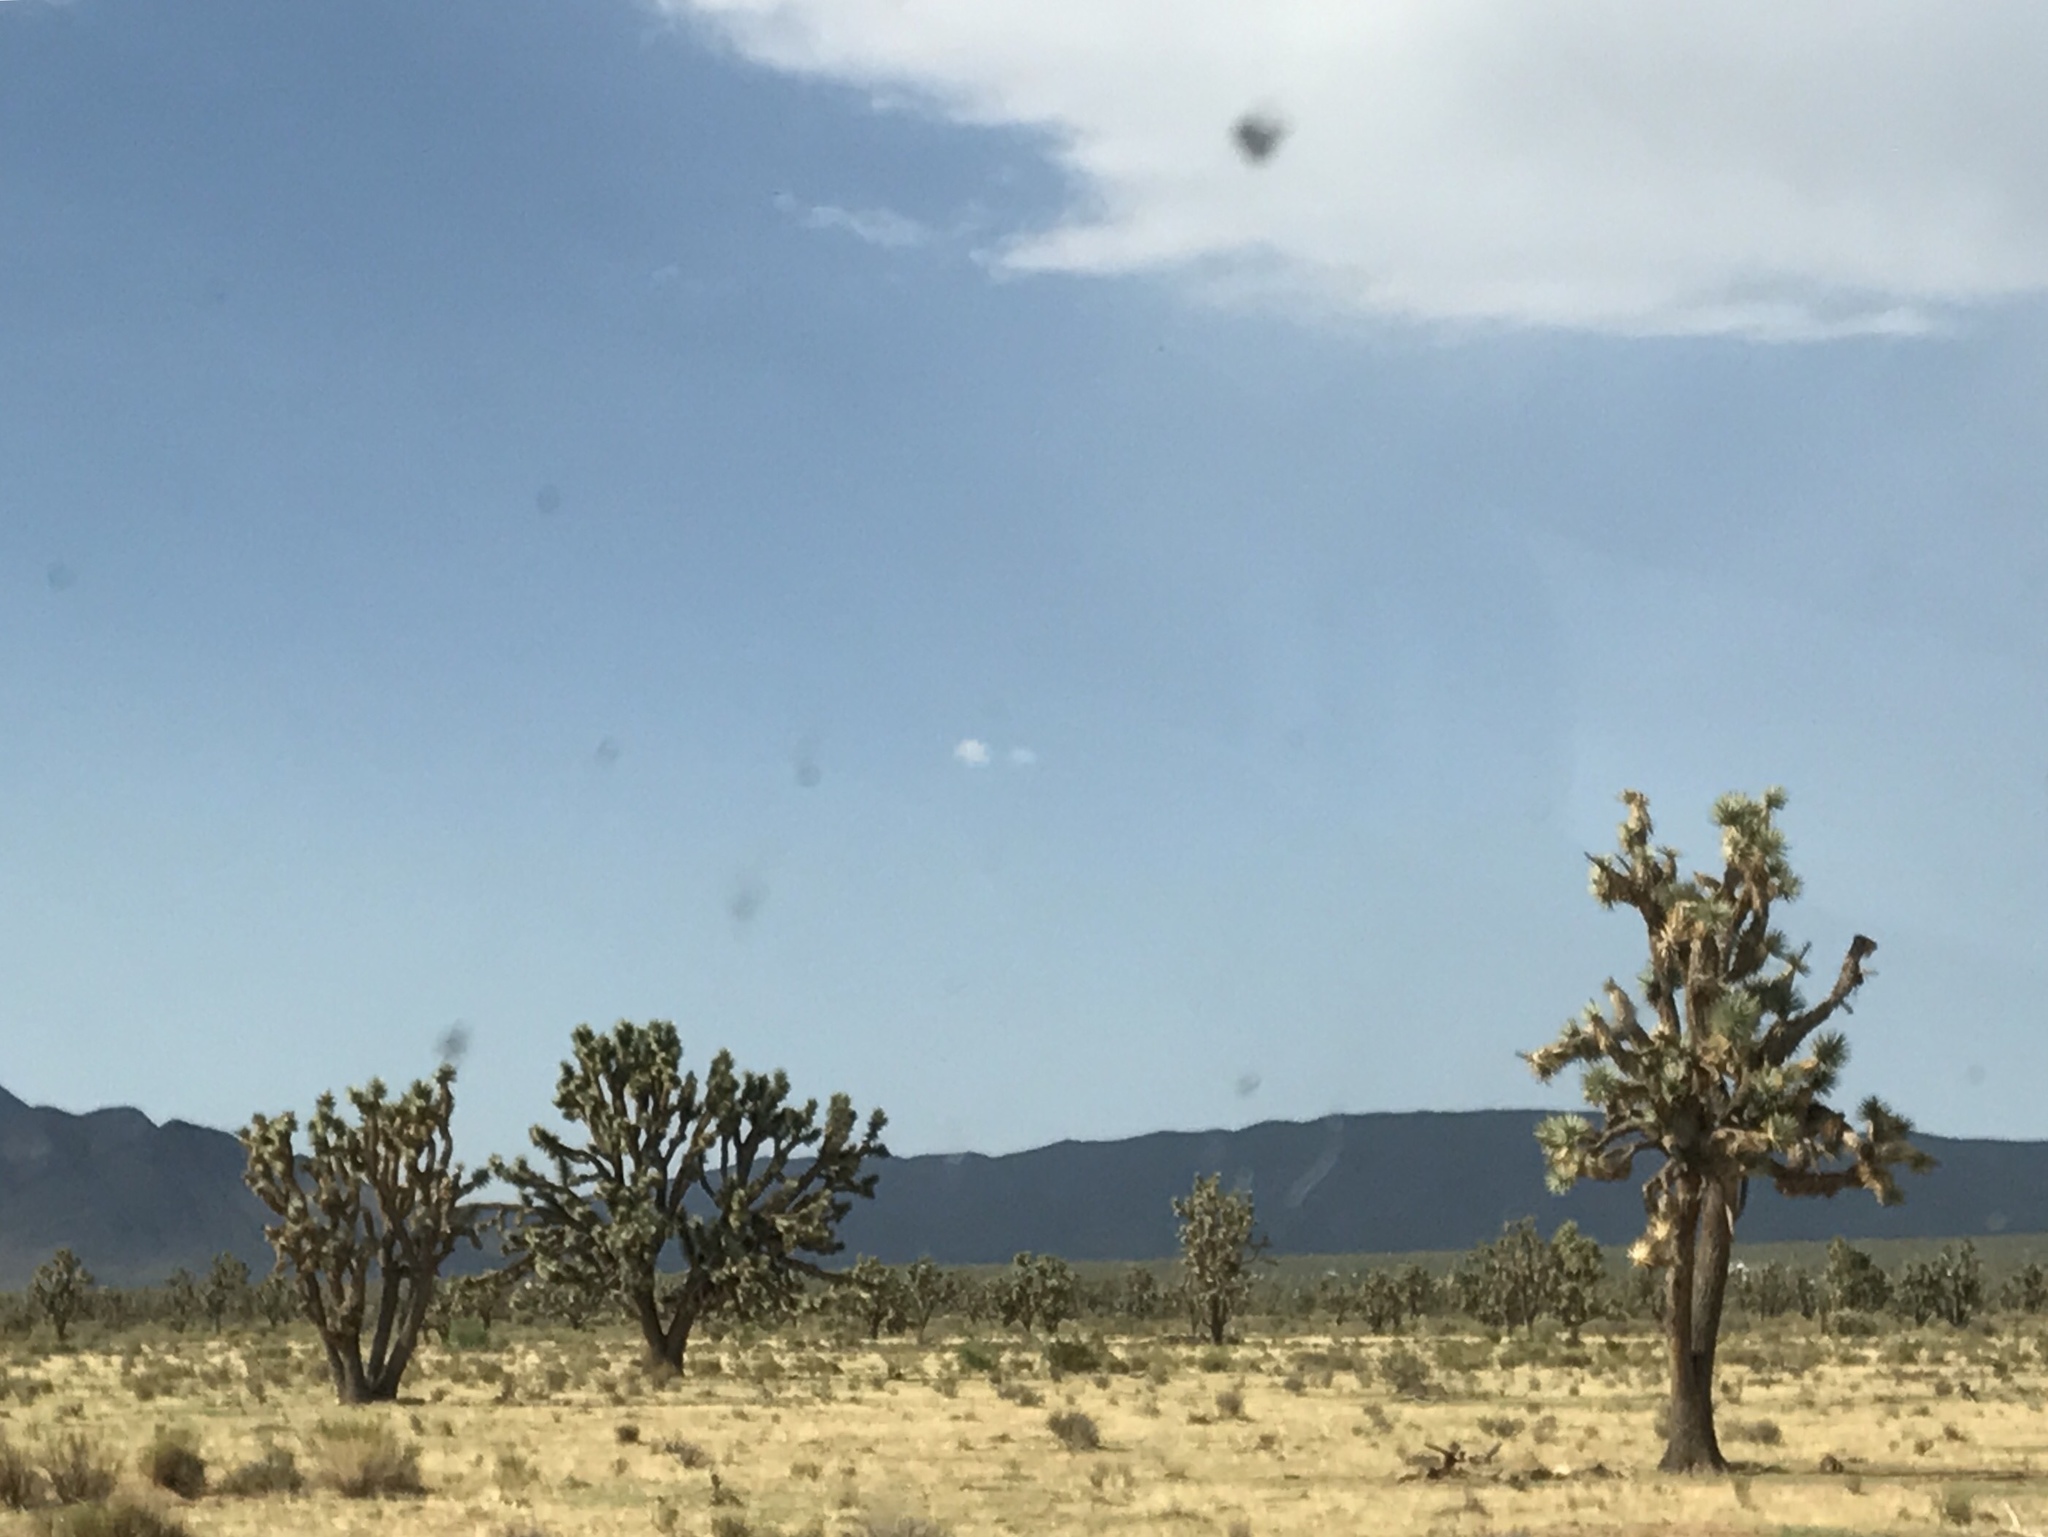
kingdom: Plantae
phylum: Tracheophyta
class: Liliopsida
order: Asparagales
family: Asparagaceae
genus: Yucca
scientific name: Yucca brevifolia
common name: Joshua tree
